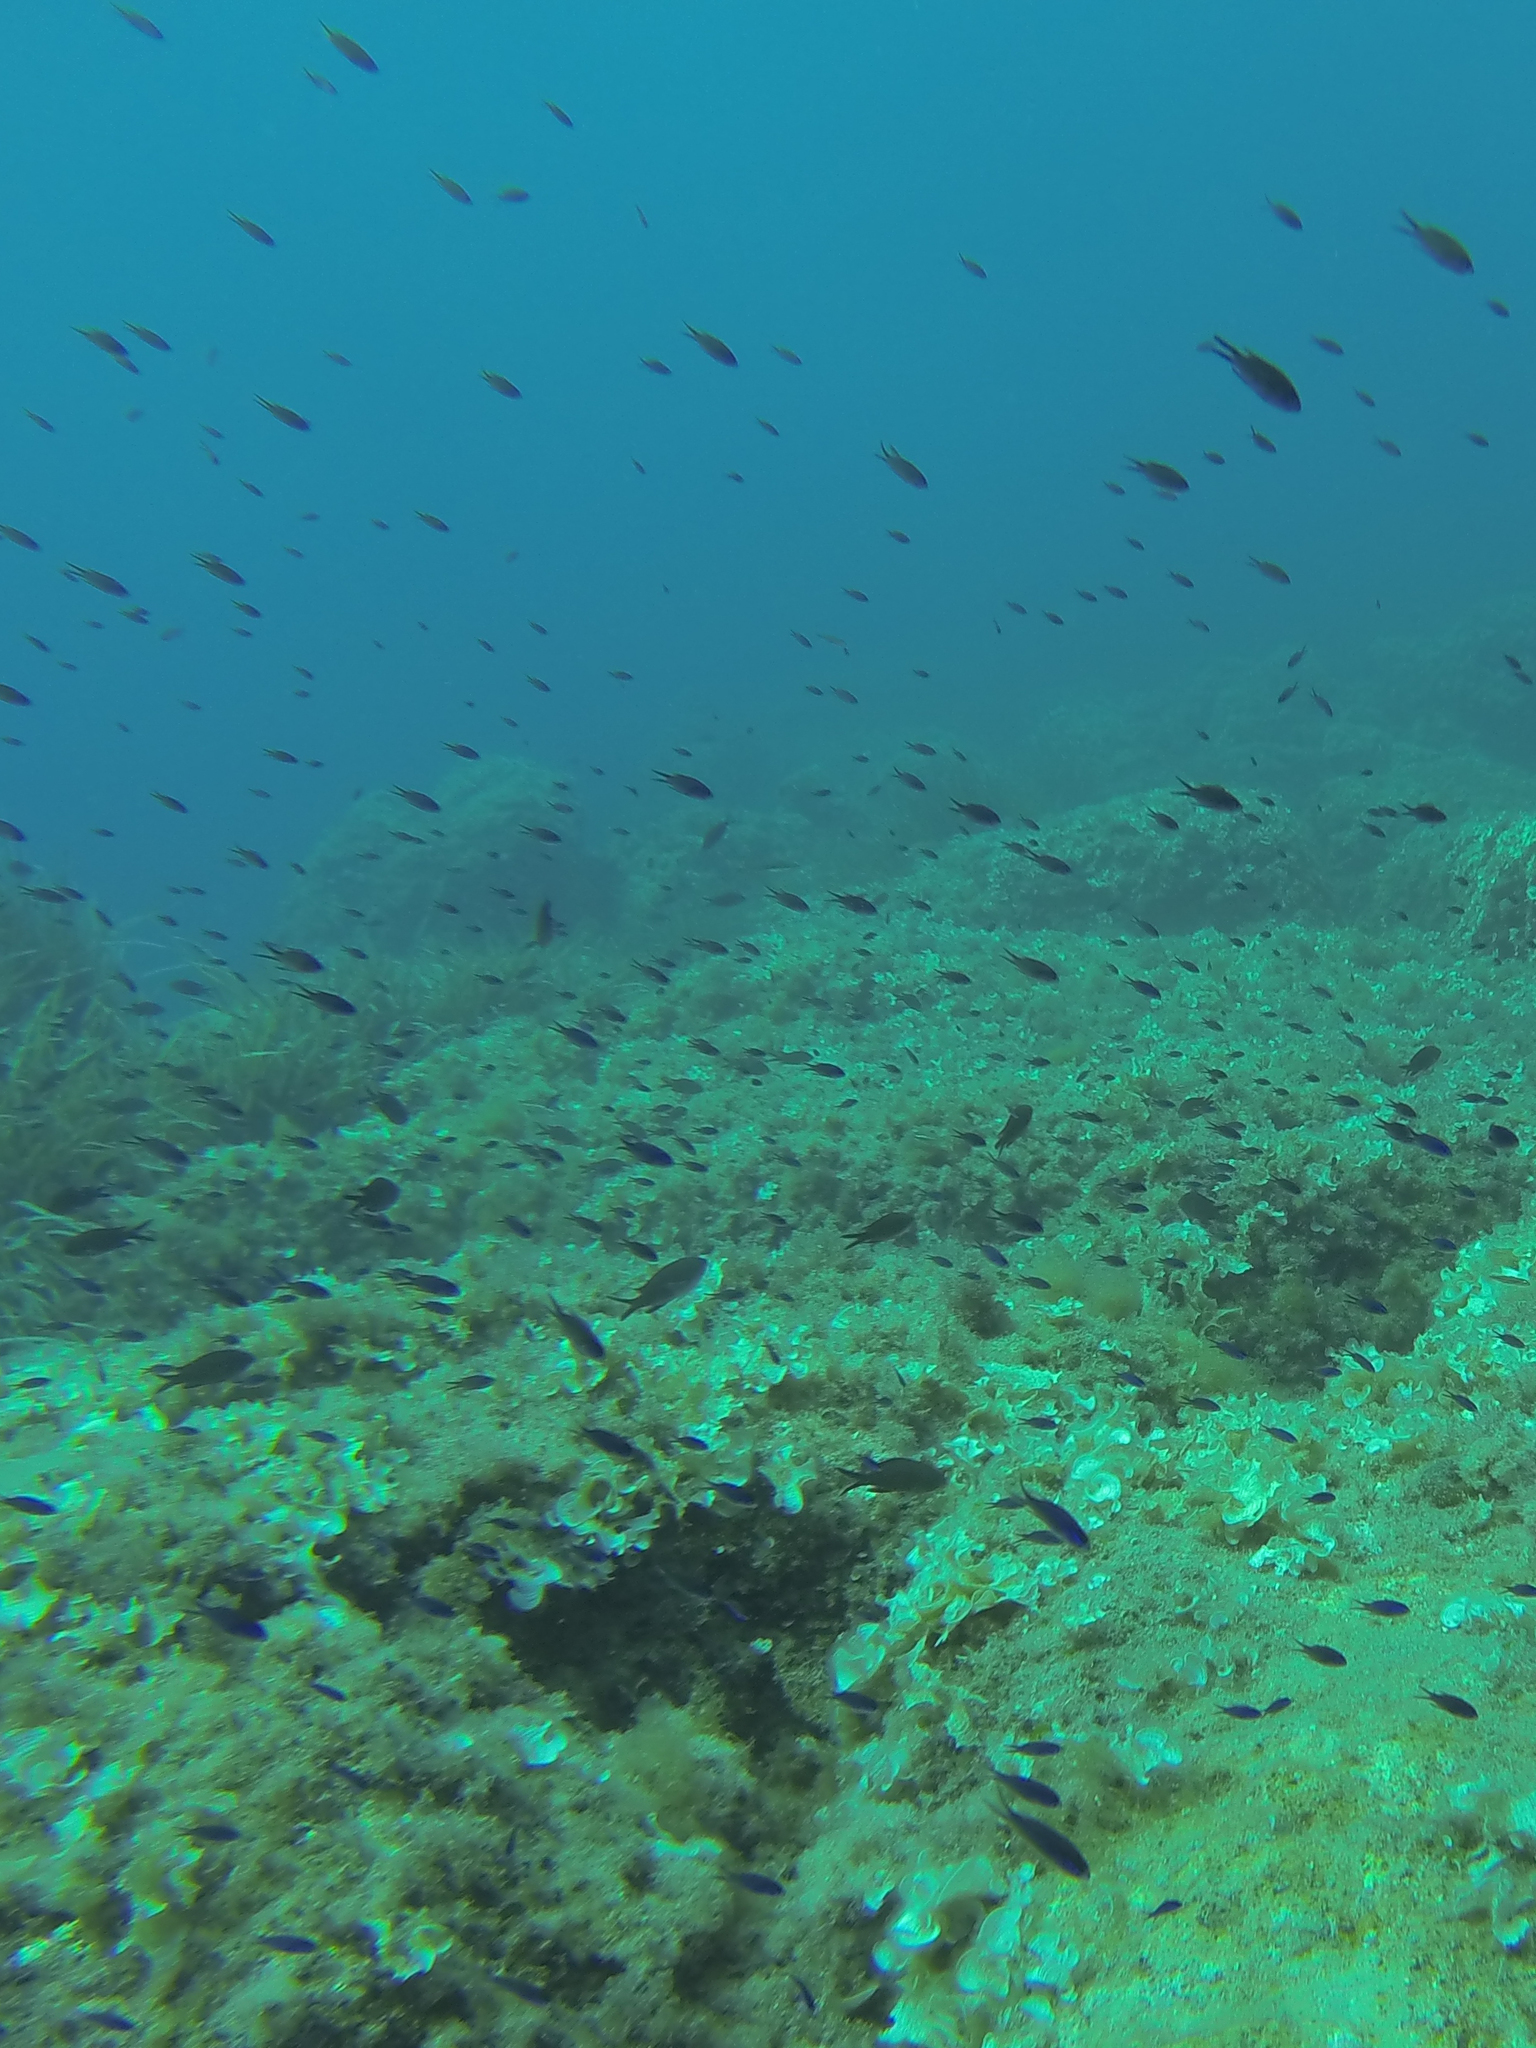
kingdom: Animalia
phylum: Chordata
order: Perciformes
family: Pomacentridae
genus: Chromis
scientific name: Chromis chromis
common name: Damselfish
